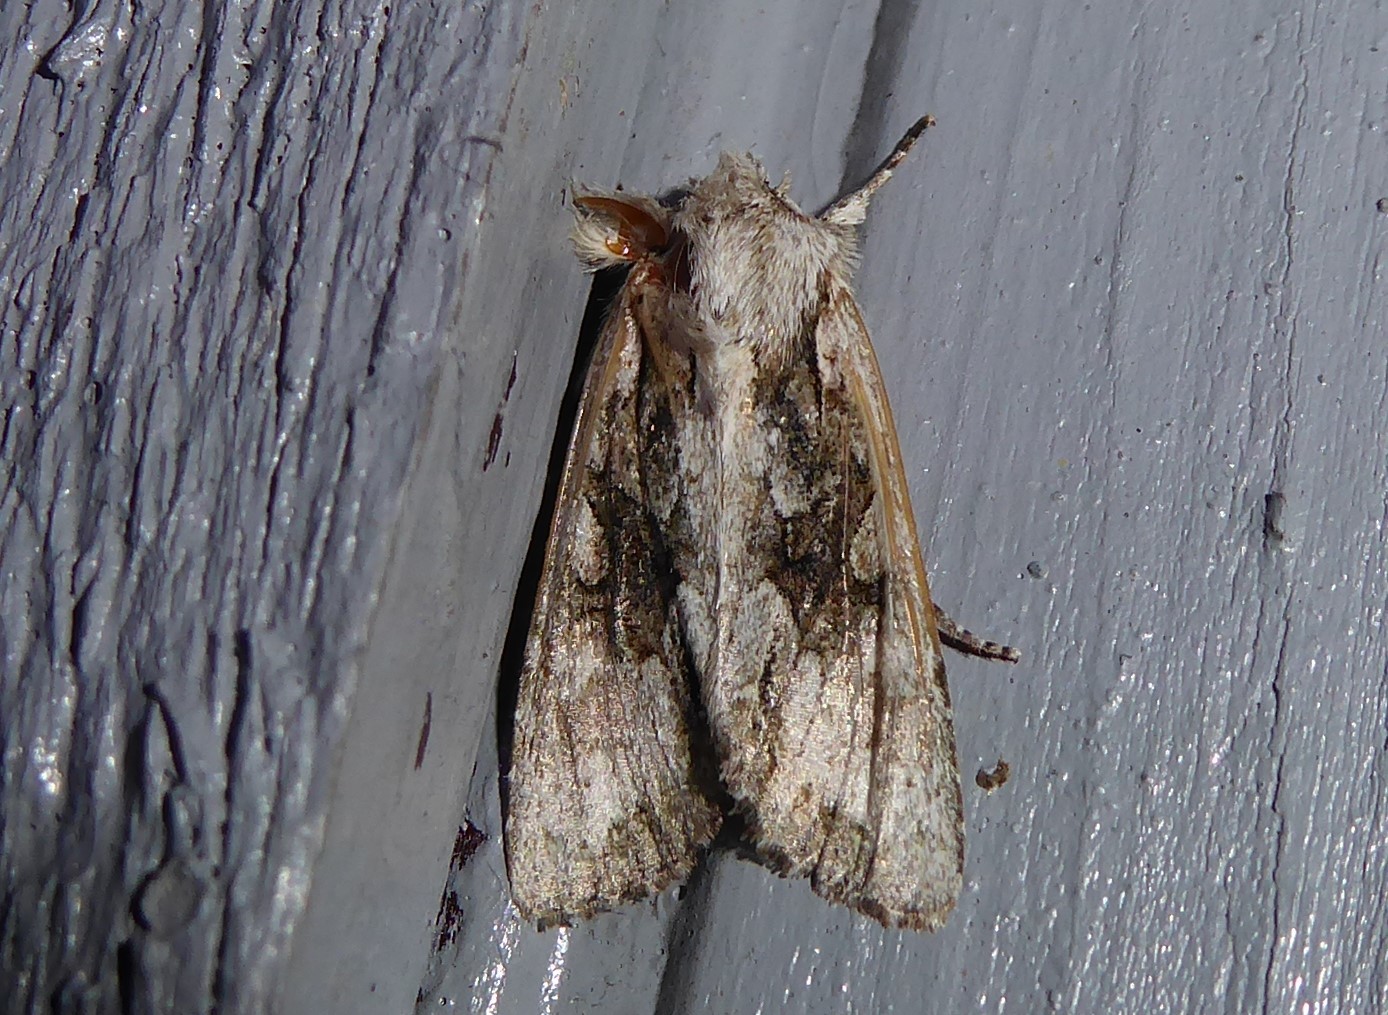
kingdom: Animalia
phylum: Arthropoda
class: Insecta
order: Lepidoptera
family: Noctuidae
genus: Ichneutica
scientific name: Ichneutica mutans
